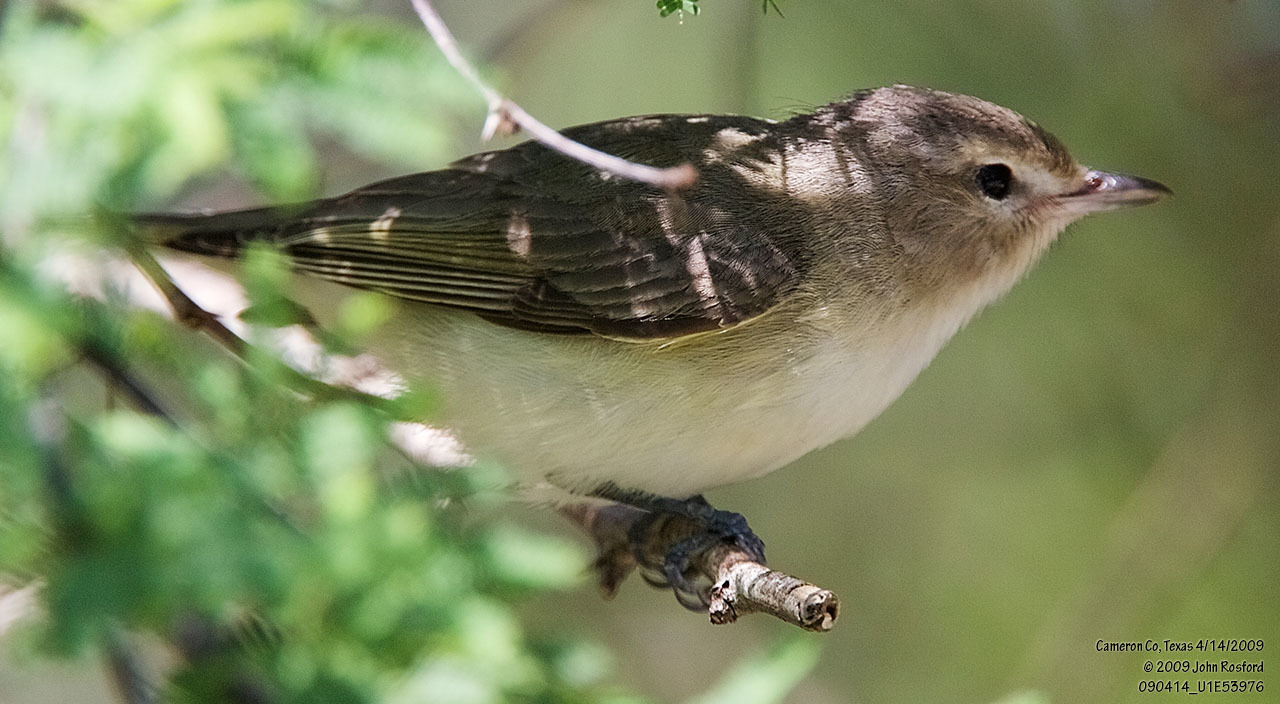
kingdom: Animalia
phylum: Chordata
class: Aves
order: Passeriformes
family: Vireonidae
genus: Vireo
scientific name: Vireo gilvus
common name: Warbling vireo
